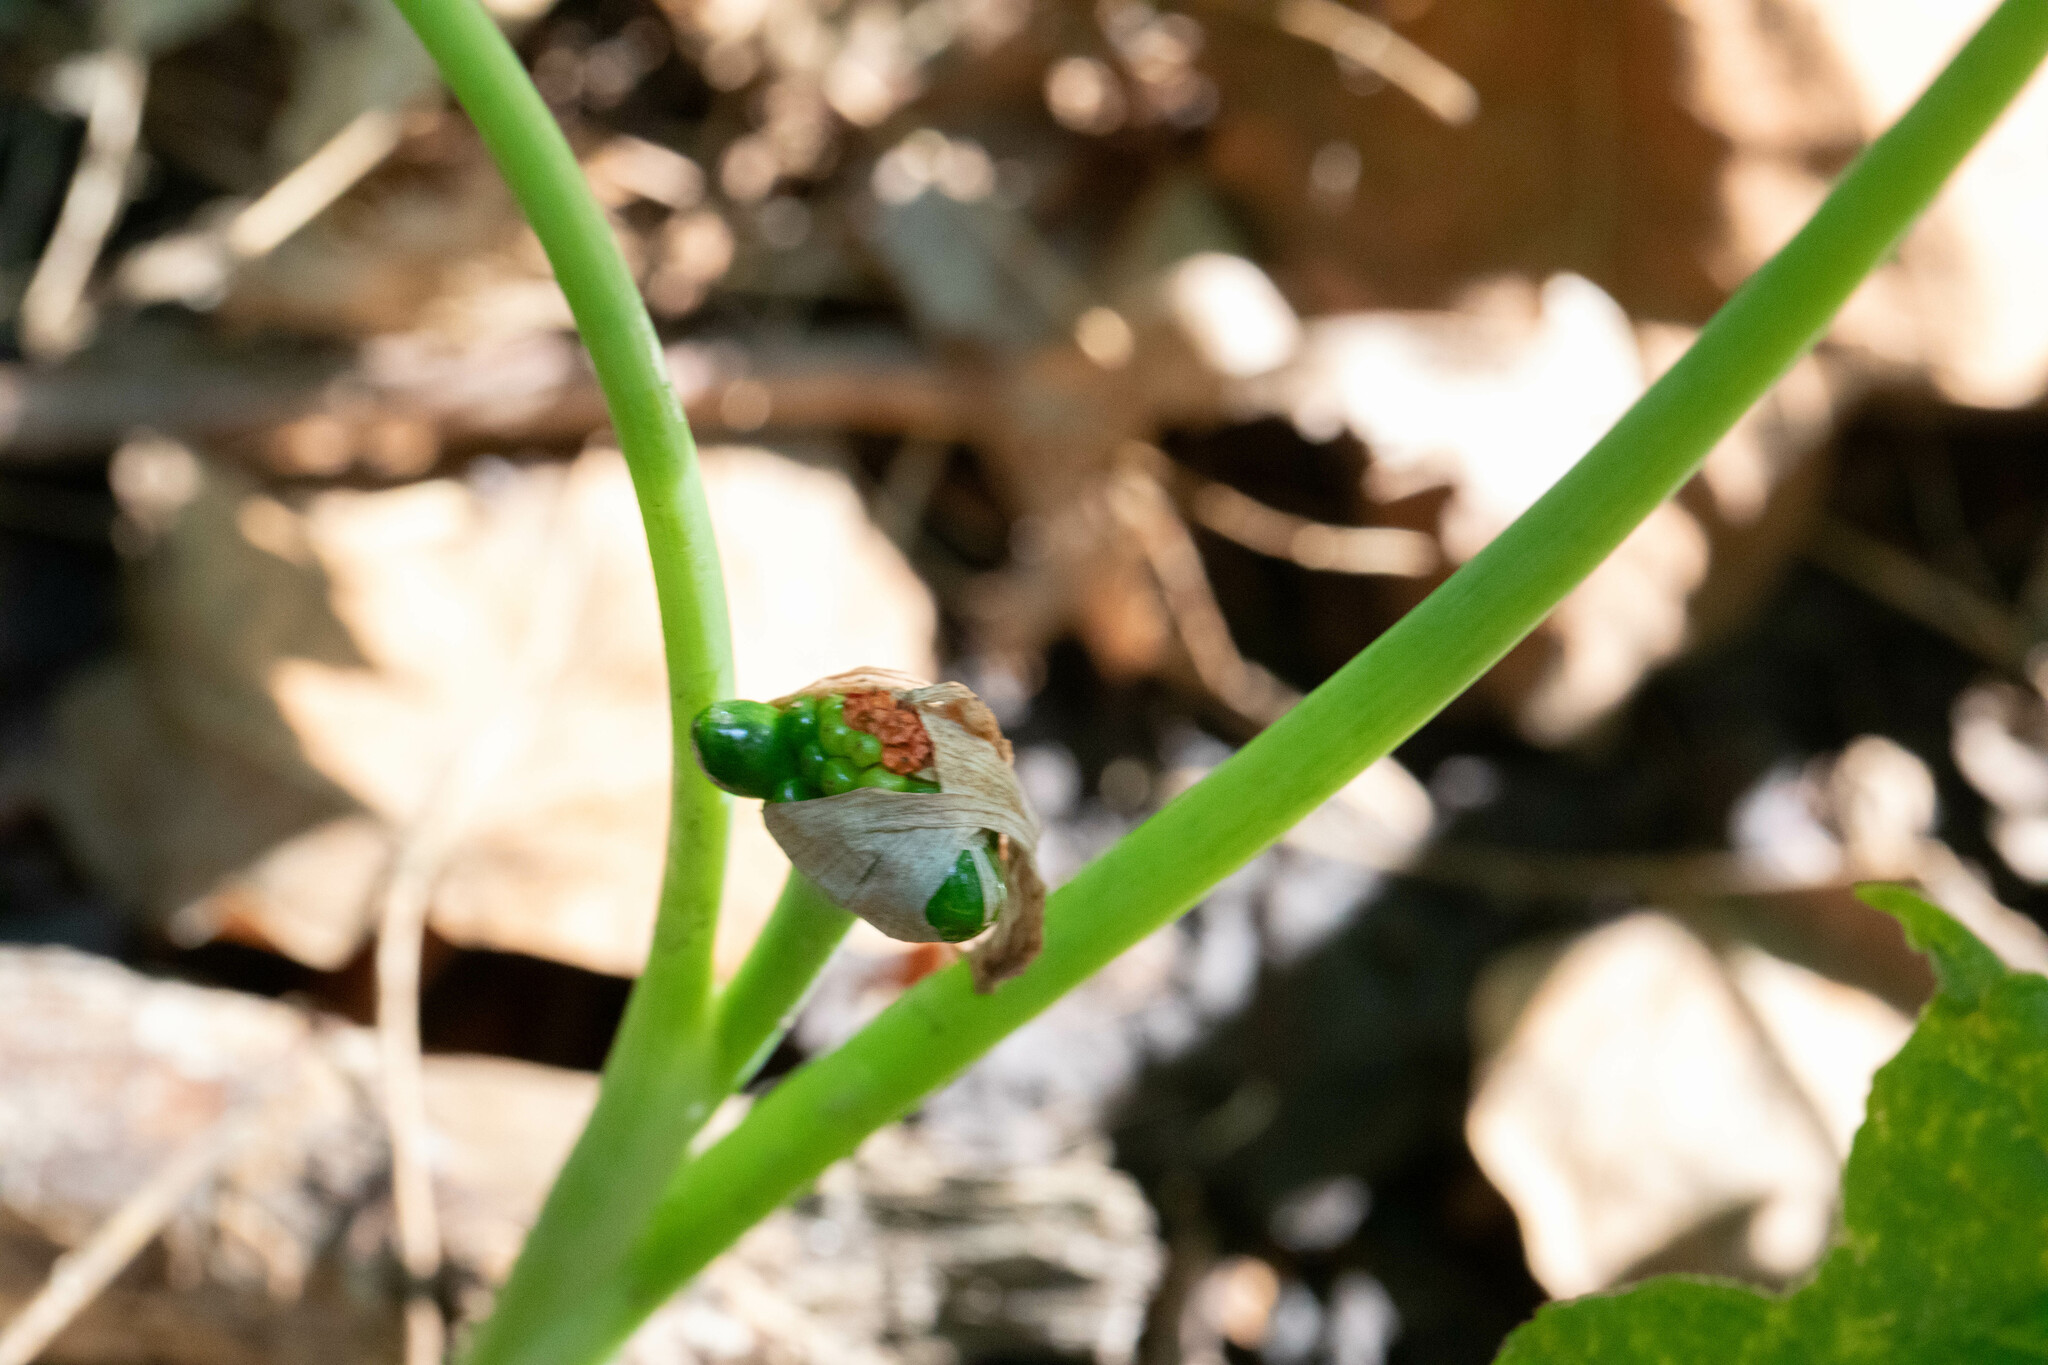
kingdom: Plantae
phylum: Tracheophyta
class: Liliopsida
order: Alismatales
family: Araceae
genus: Arisaema
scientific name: Arisaema triphyllum
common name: Jack-in-the-pulpit
